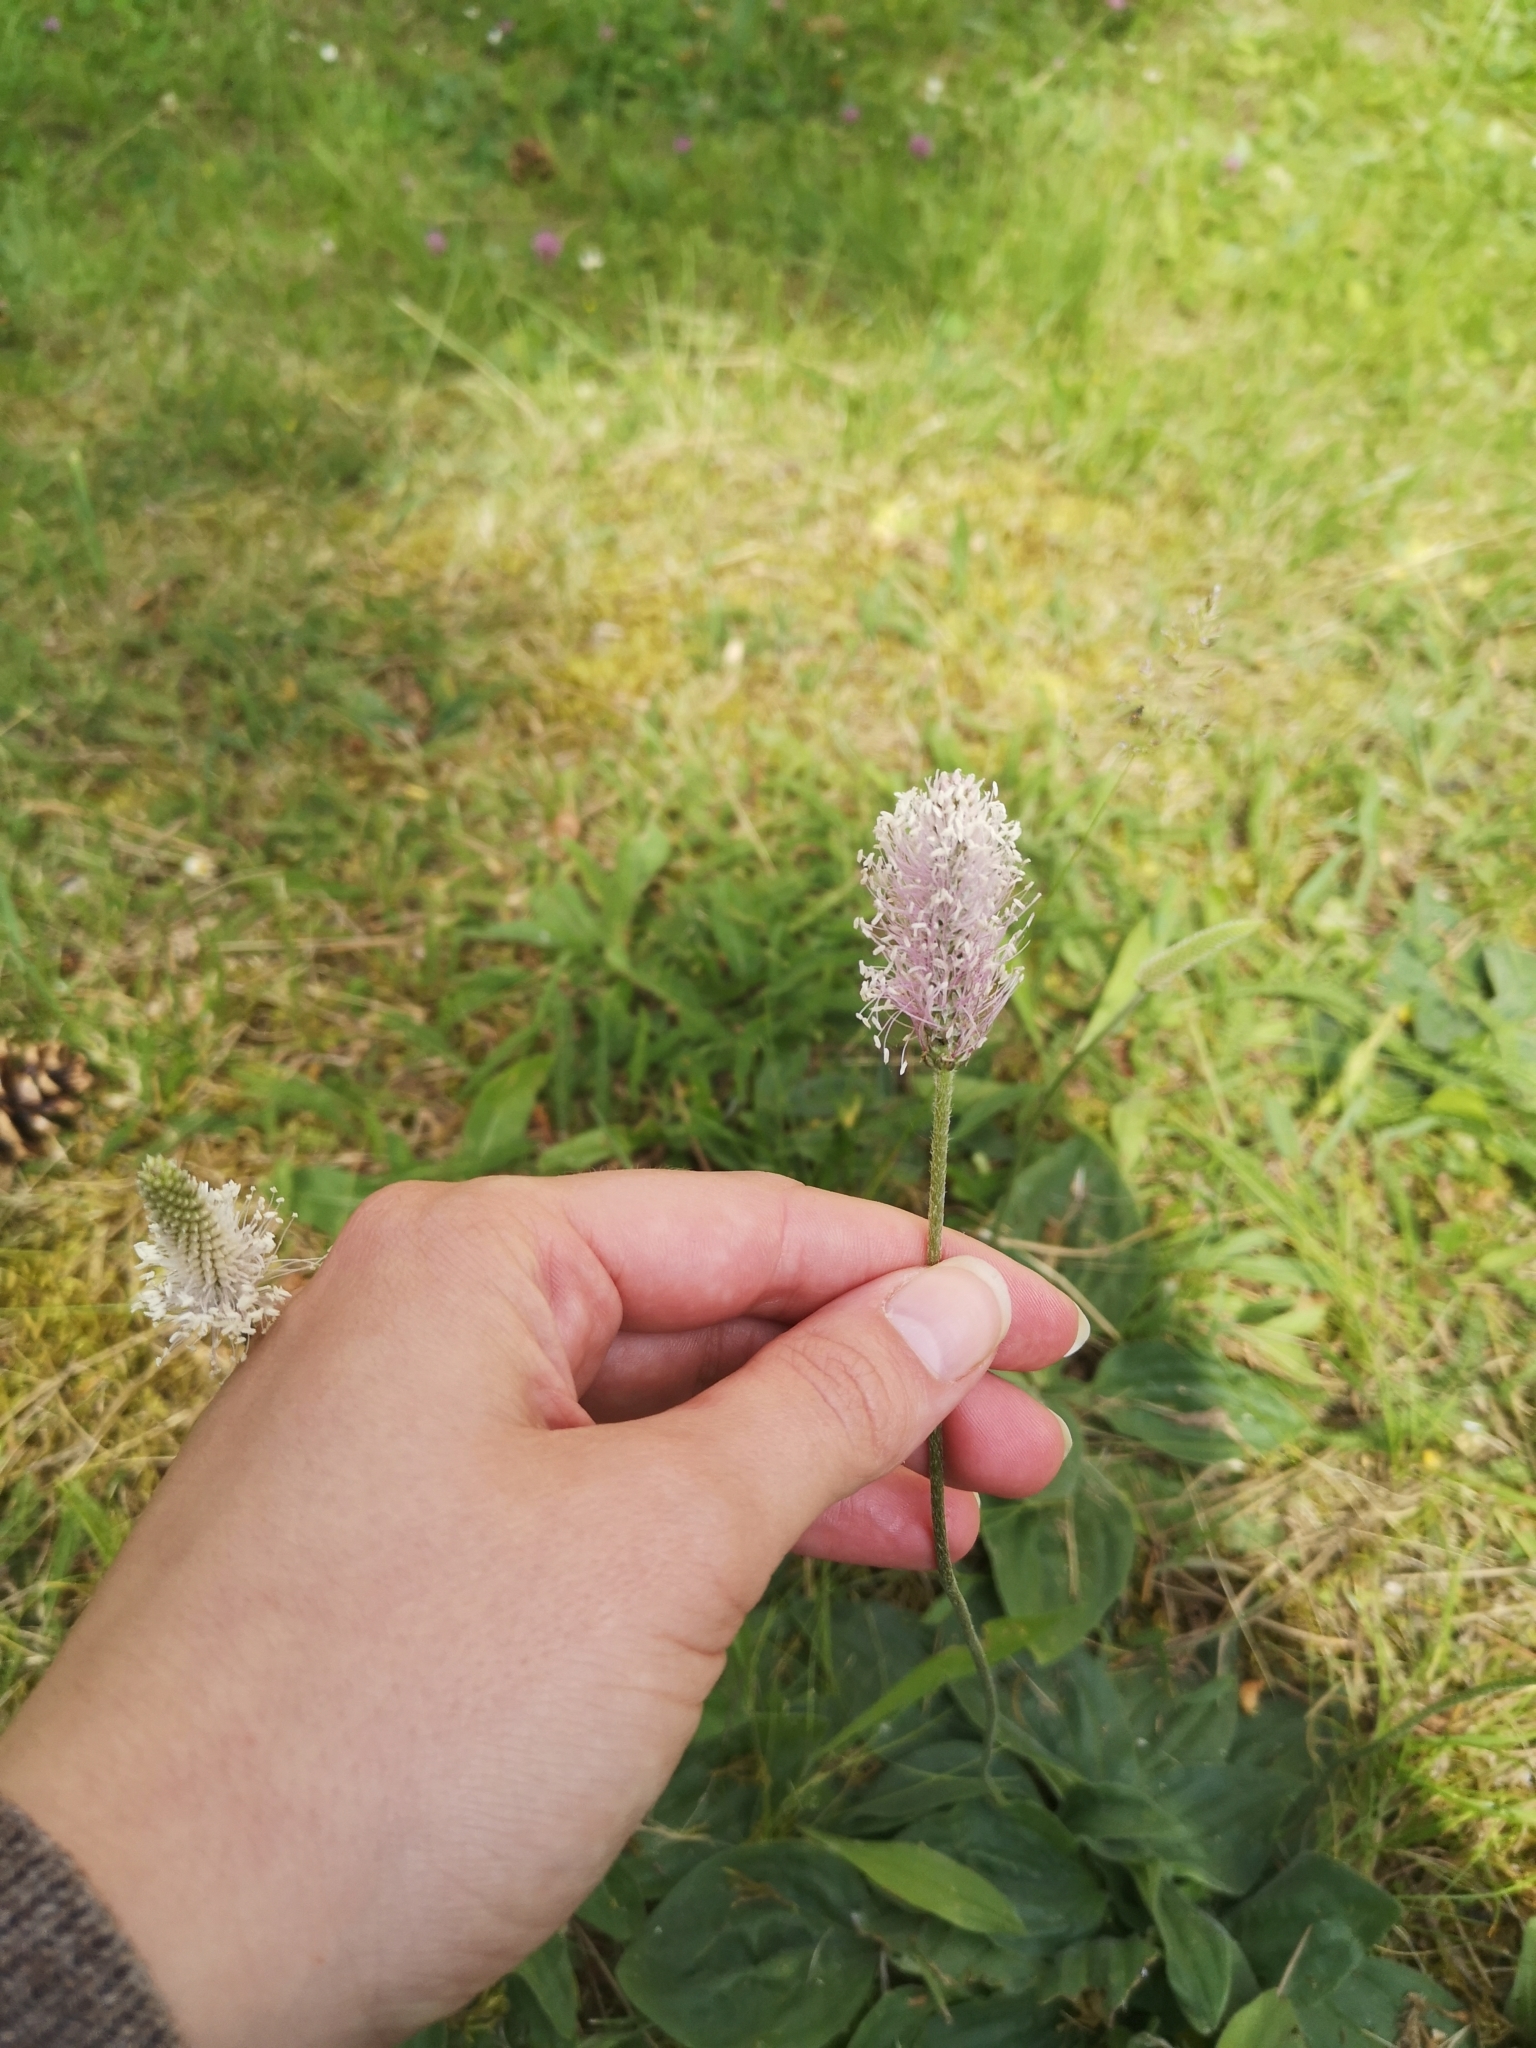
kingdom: Plantae
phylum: Tracheophyta
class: Magnoliopsida
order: Lamiales
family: Plantaginaceae
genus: Plantago
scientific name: Plantago media
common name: Hoary plantain
